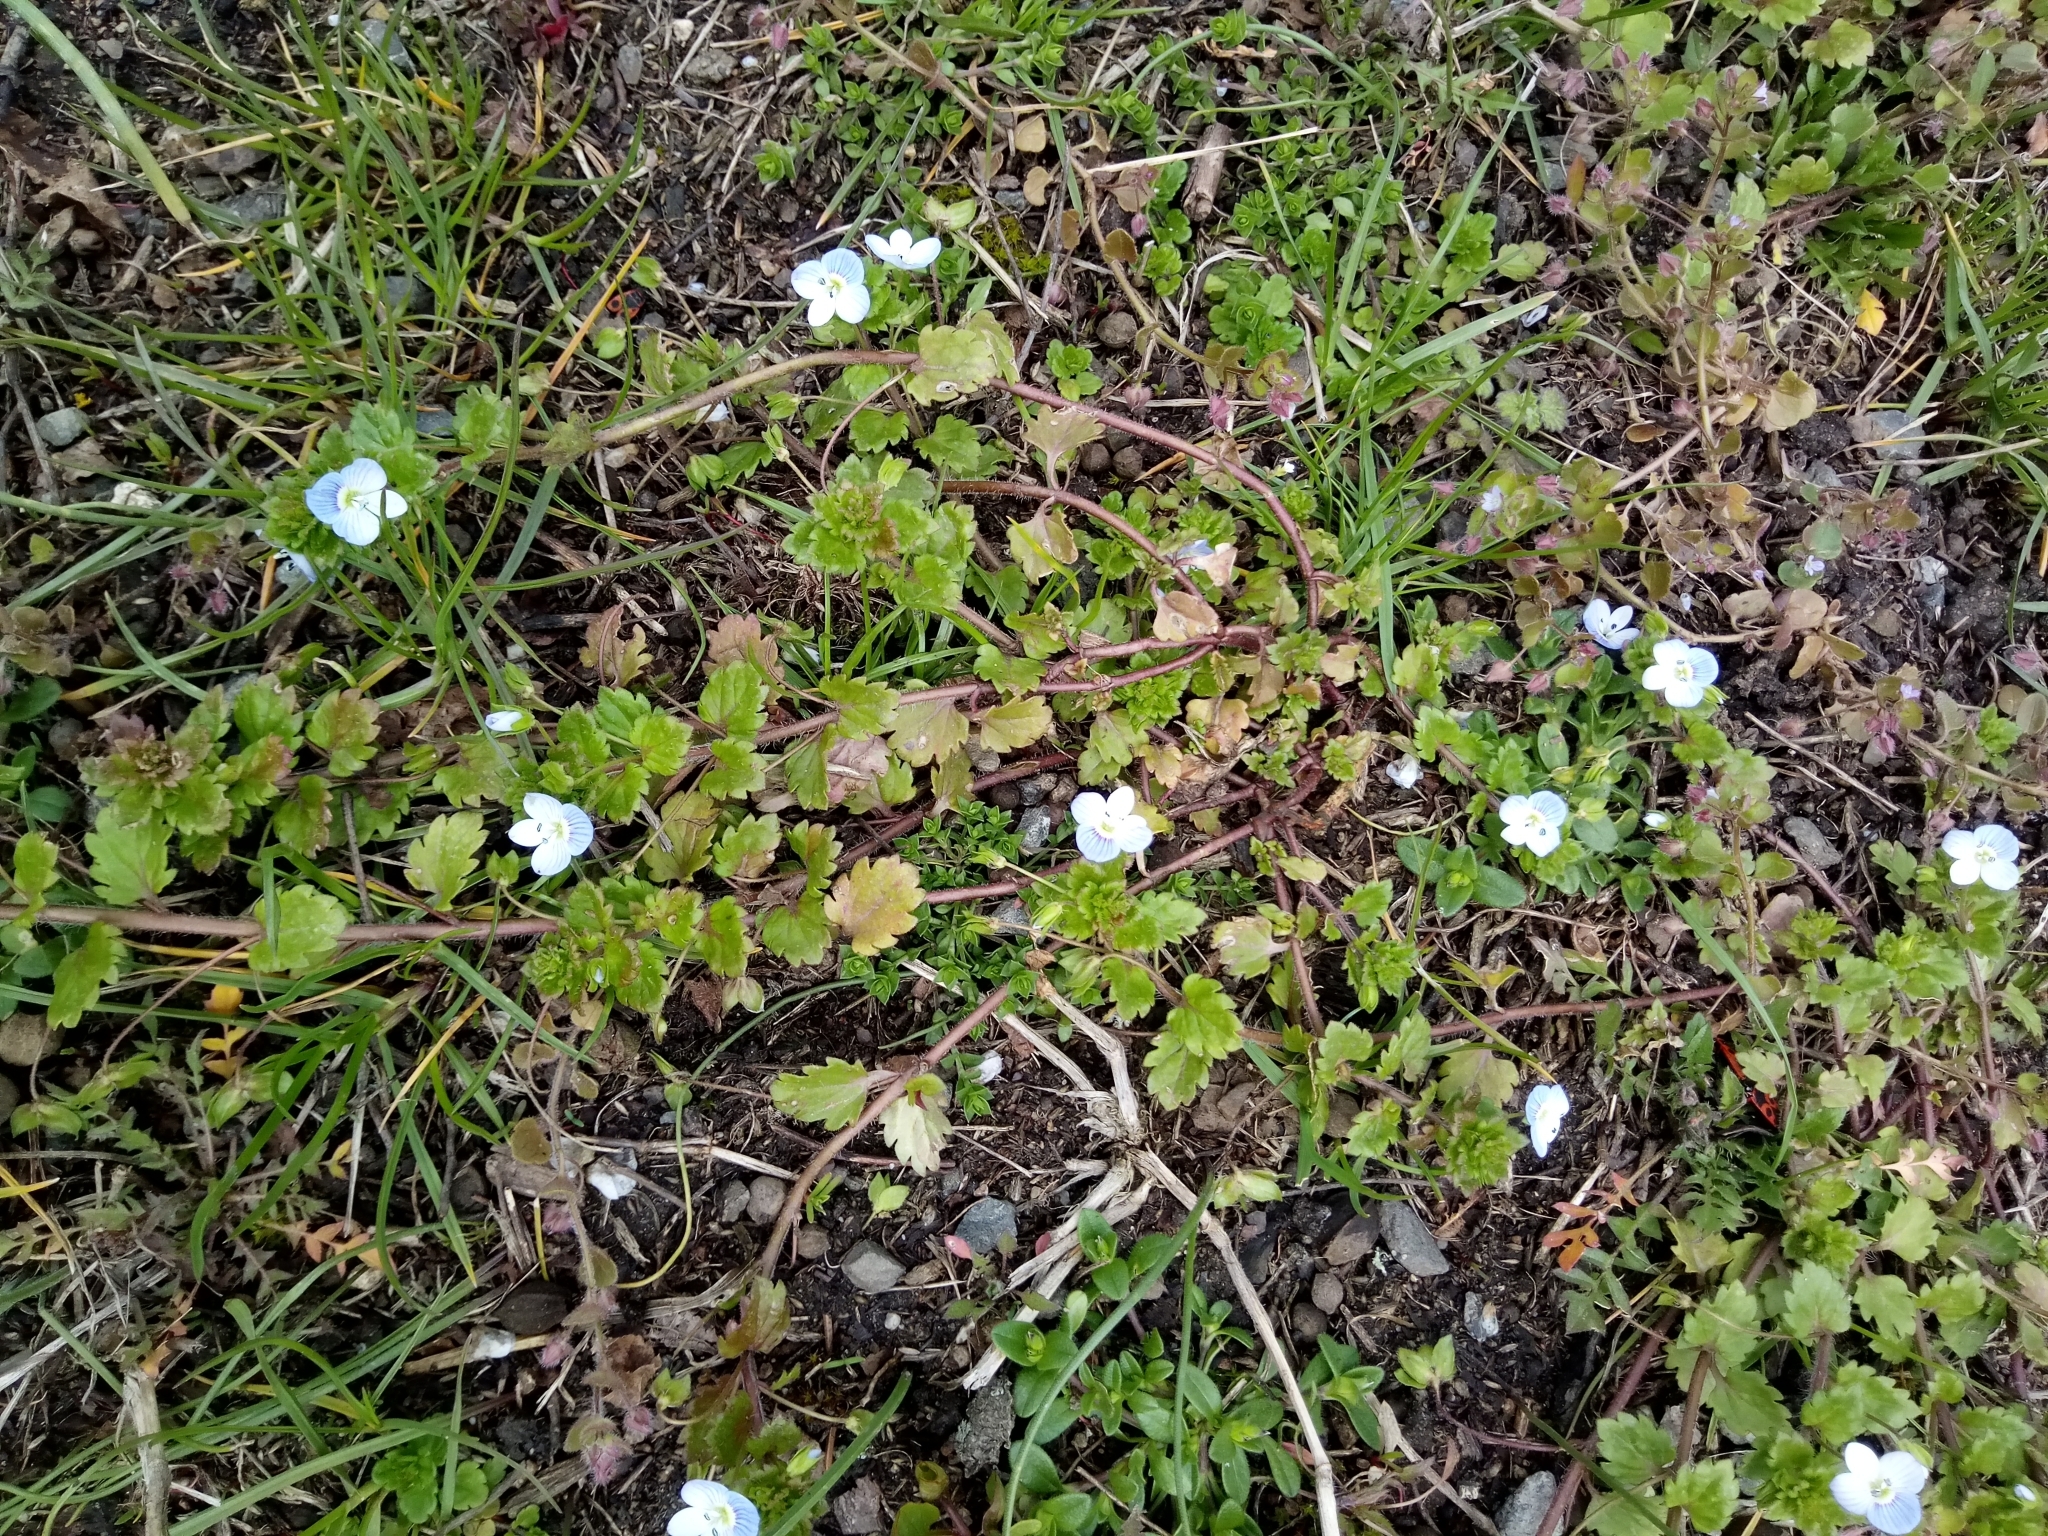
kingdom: Plantae
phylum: Tracheophyta
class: Magnoliopsida
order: Lamiales
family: Plantaginaceae
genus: Veronica
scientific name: Veronica persica
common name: Common field-speedwell
